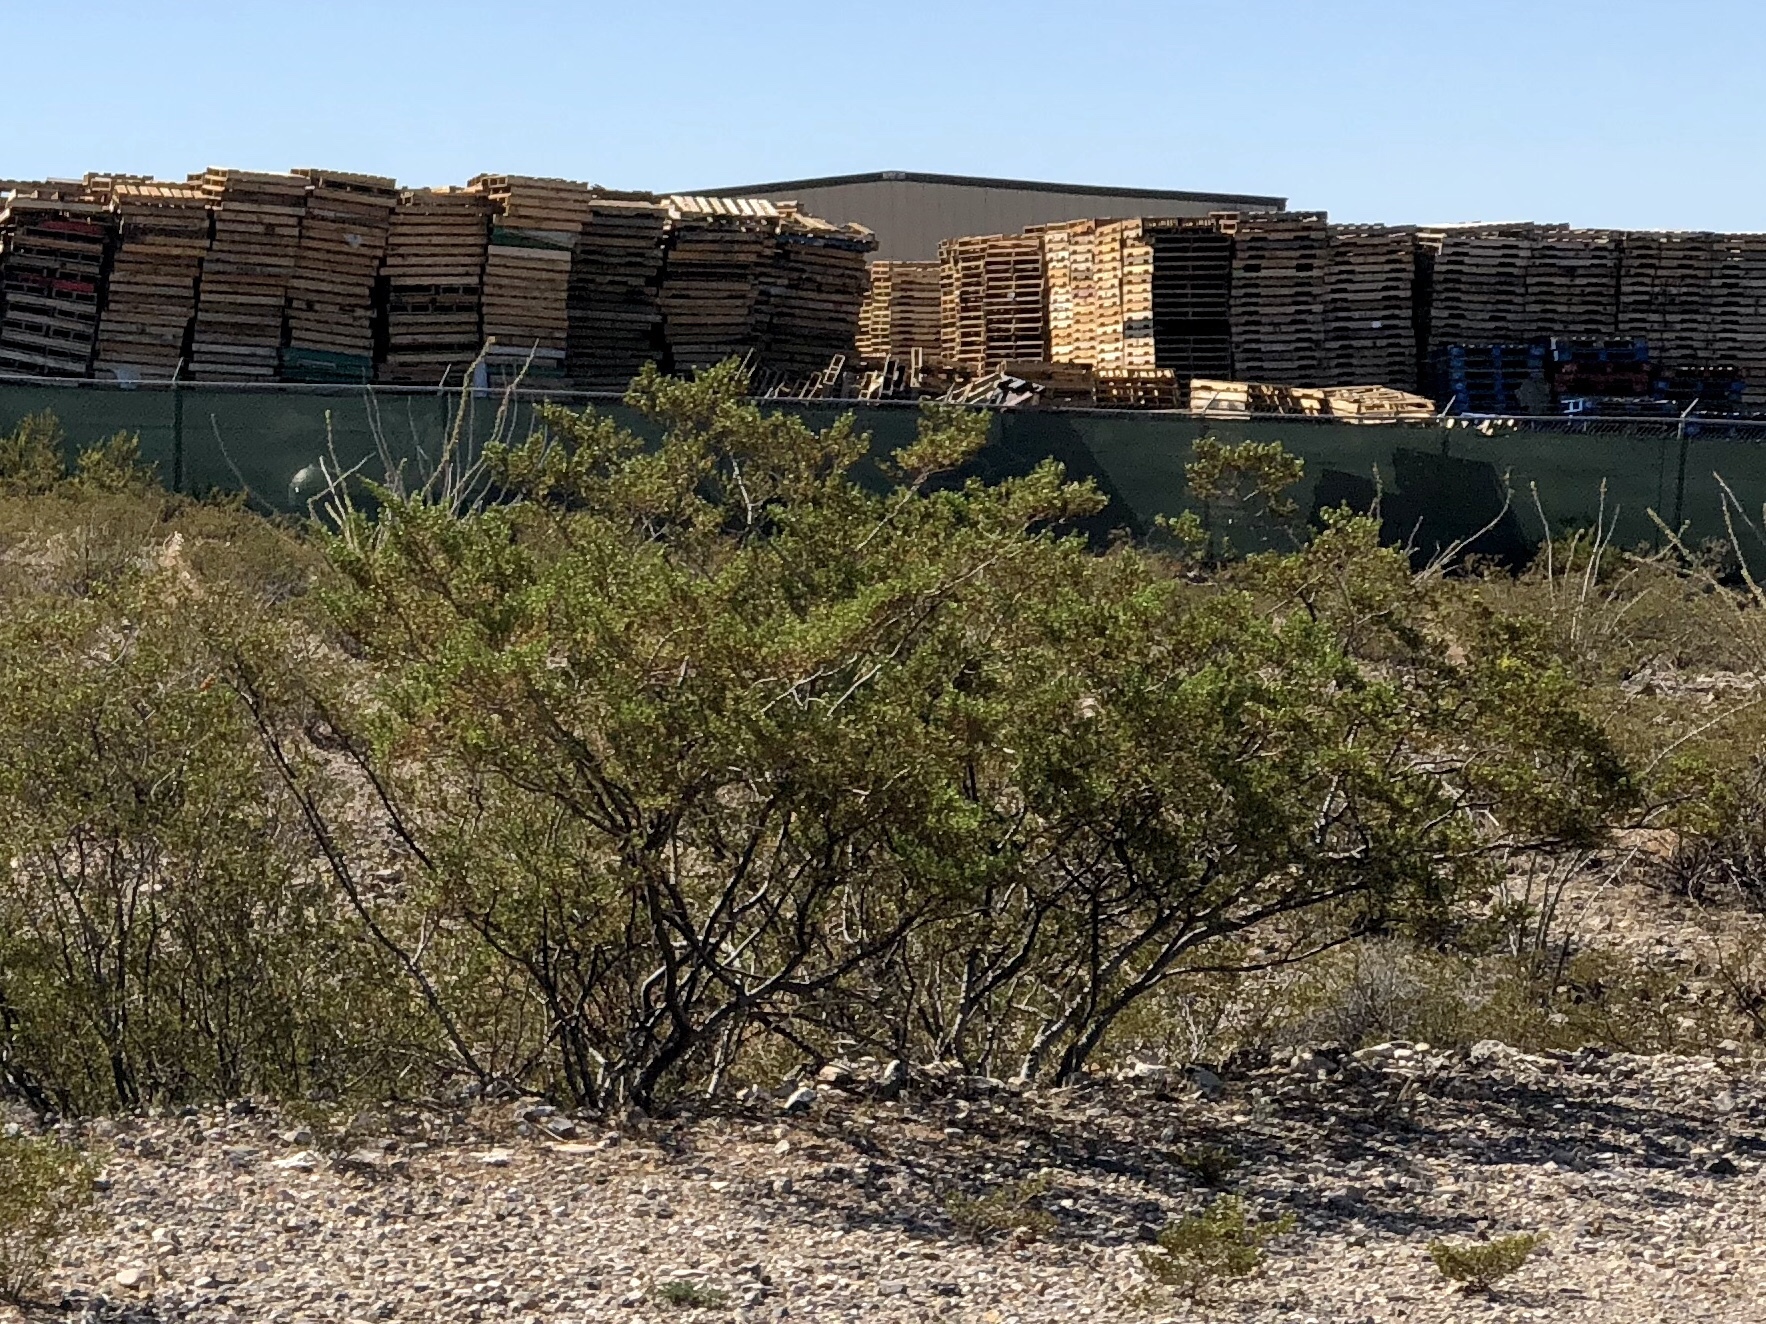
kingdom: Plantae
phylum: Tracheophyta
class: Magnoliopsida
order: Zygophyllales
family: Zygophyllaceae
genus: Larrea
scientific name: Larrea tridentata
